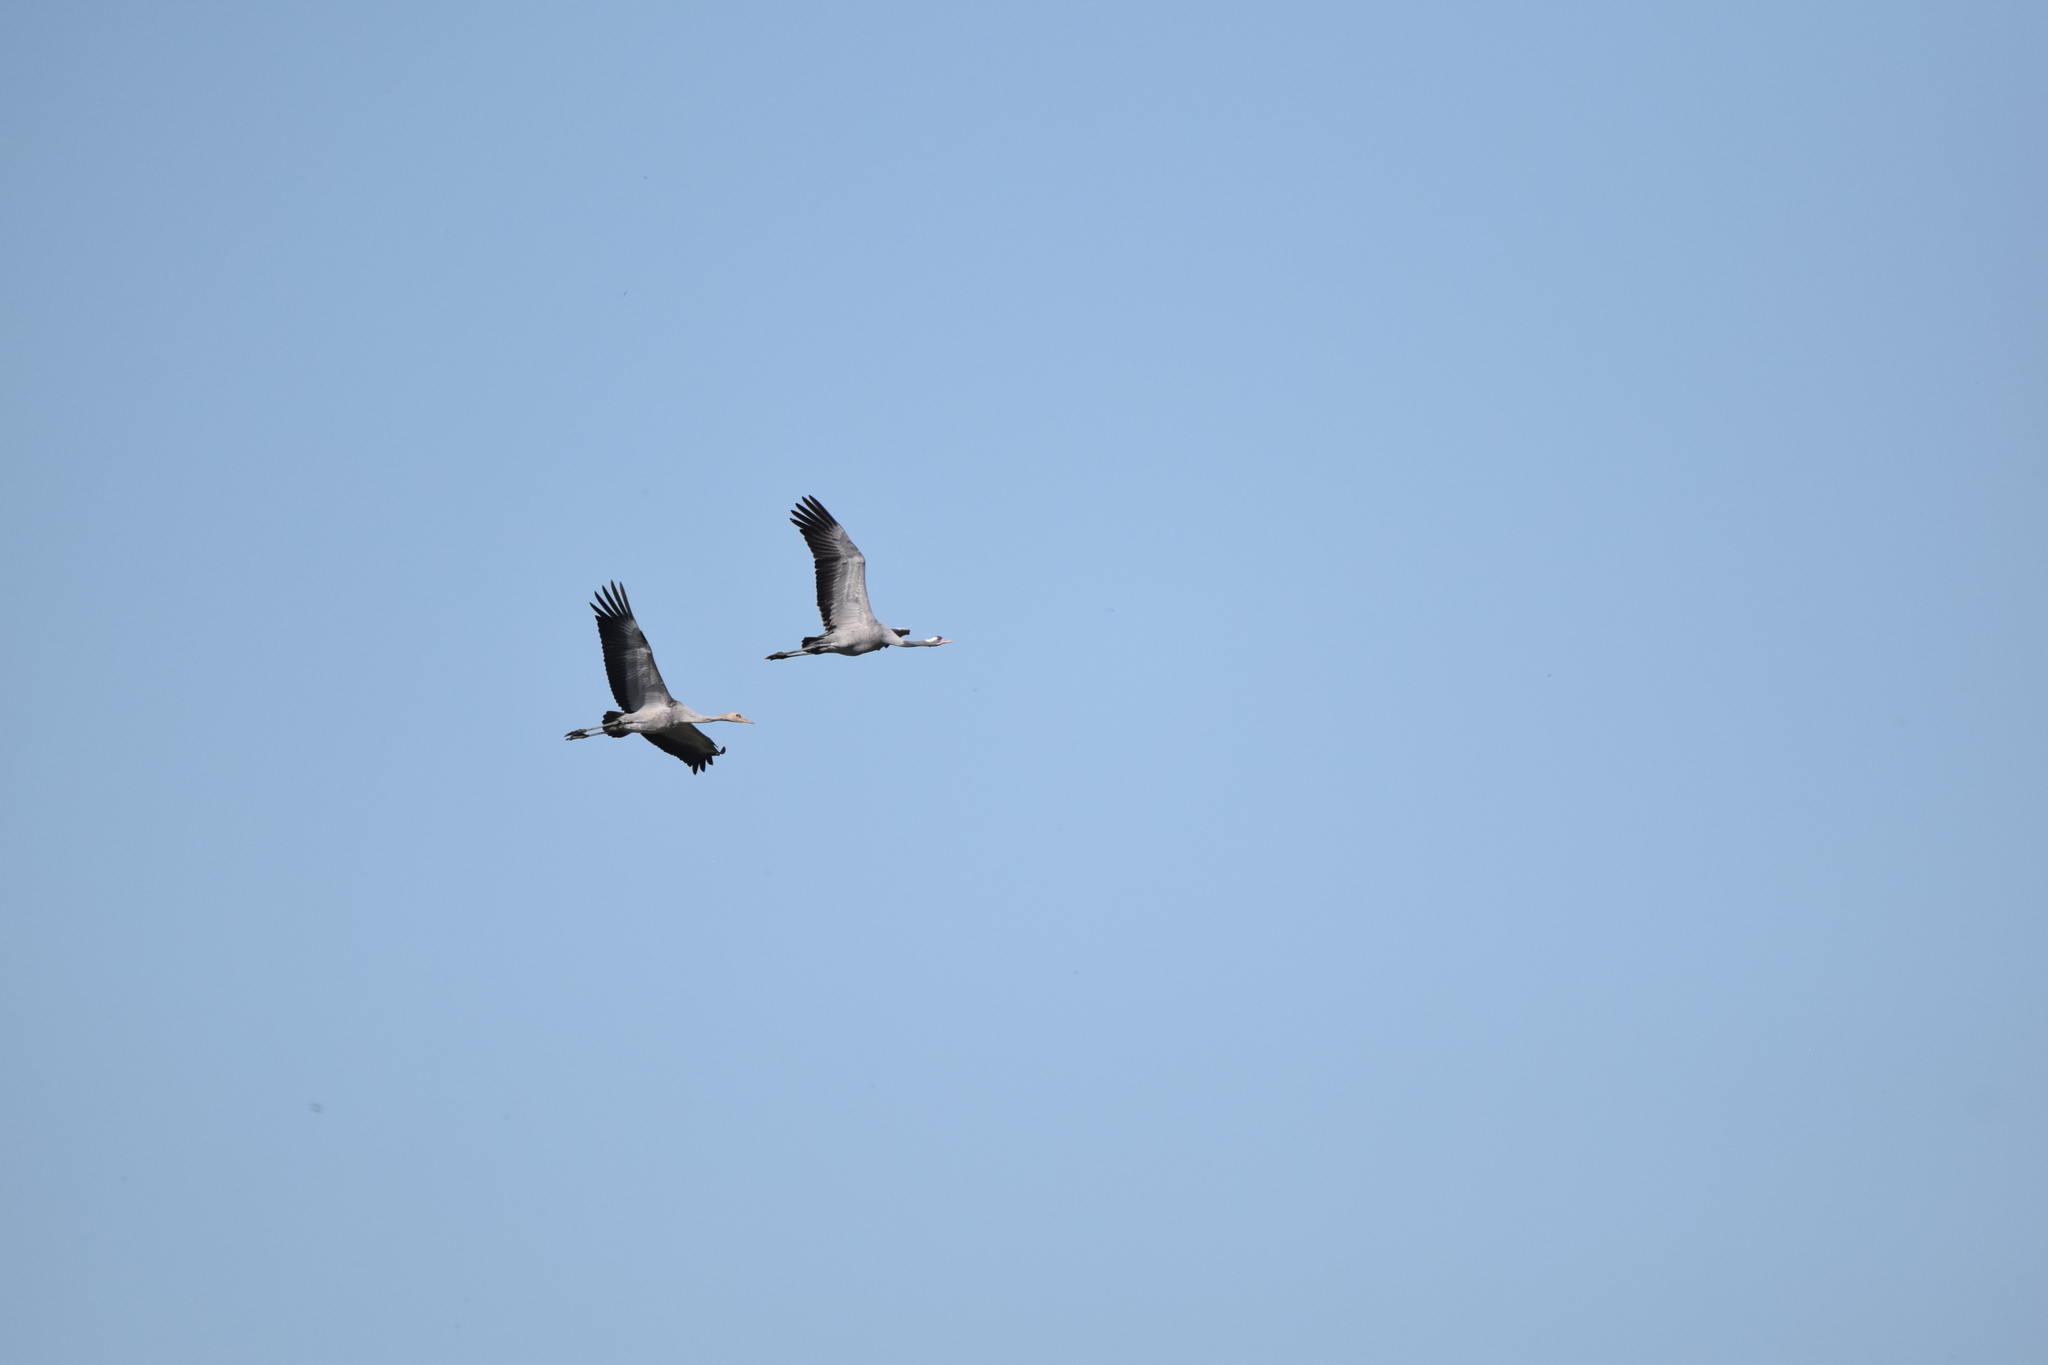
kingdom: Animalia
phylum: Chordata
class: Aves
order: Gruiformes
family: Gruidae
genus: Grus
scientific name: Grus grus
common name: Common crane
